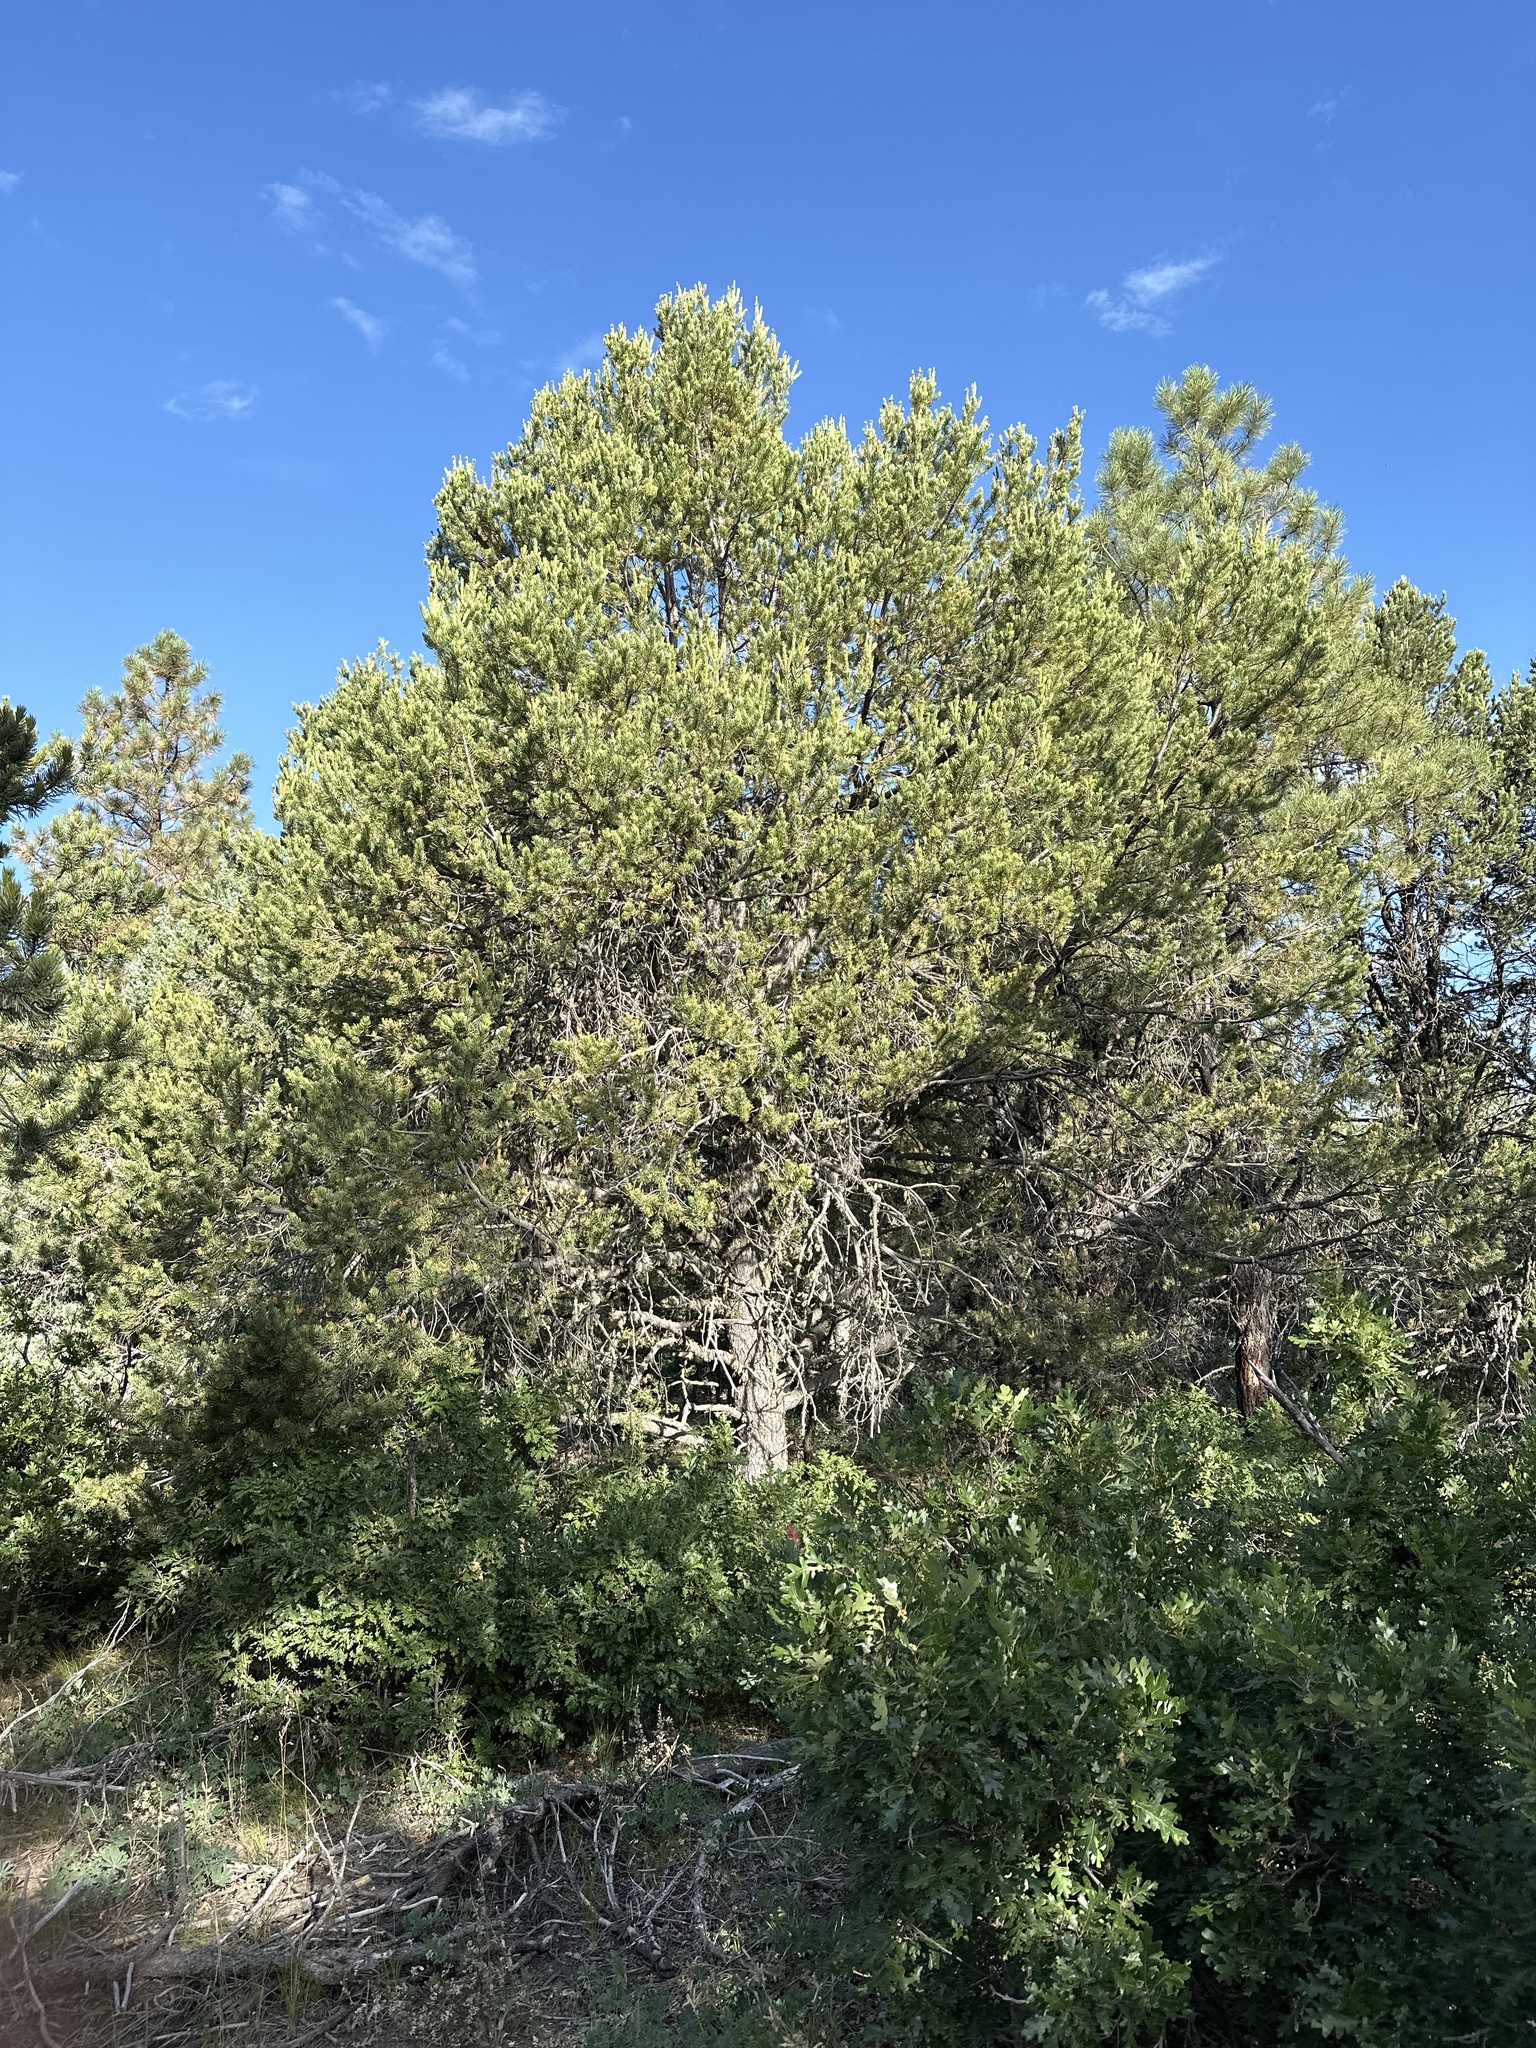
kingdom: Plantae
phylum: Tracheophyta
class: Pinopsida
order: Pinales
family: Pinaceae
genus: Pinus
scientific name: Pinus edulis
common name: Colorado pinyon
